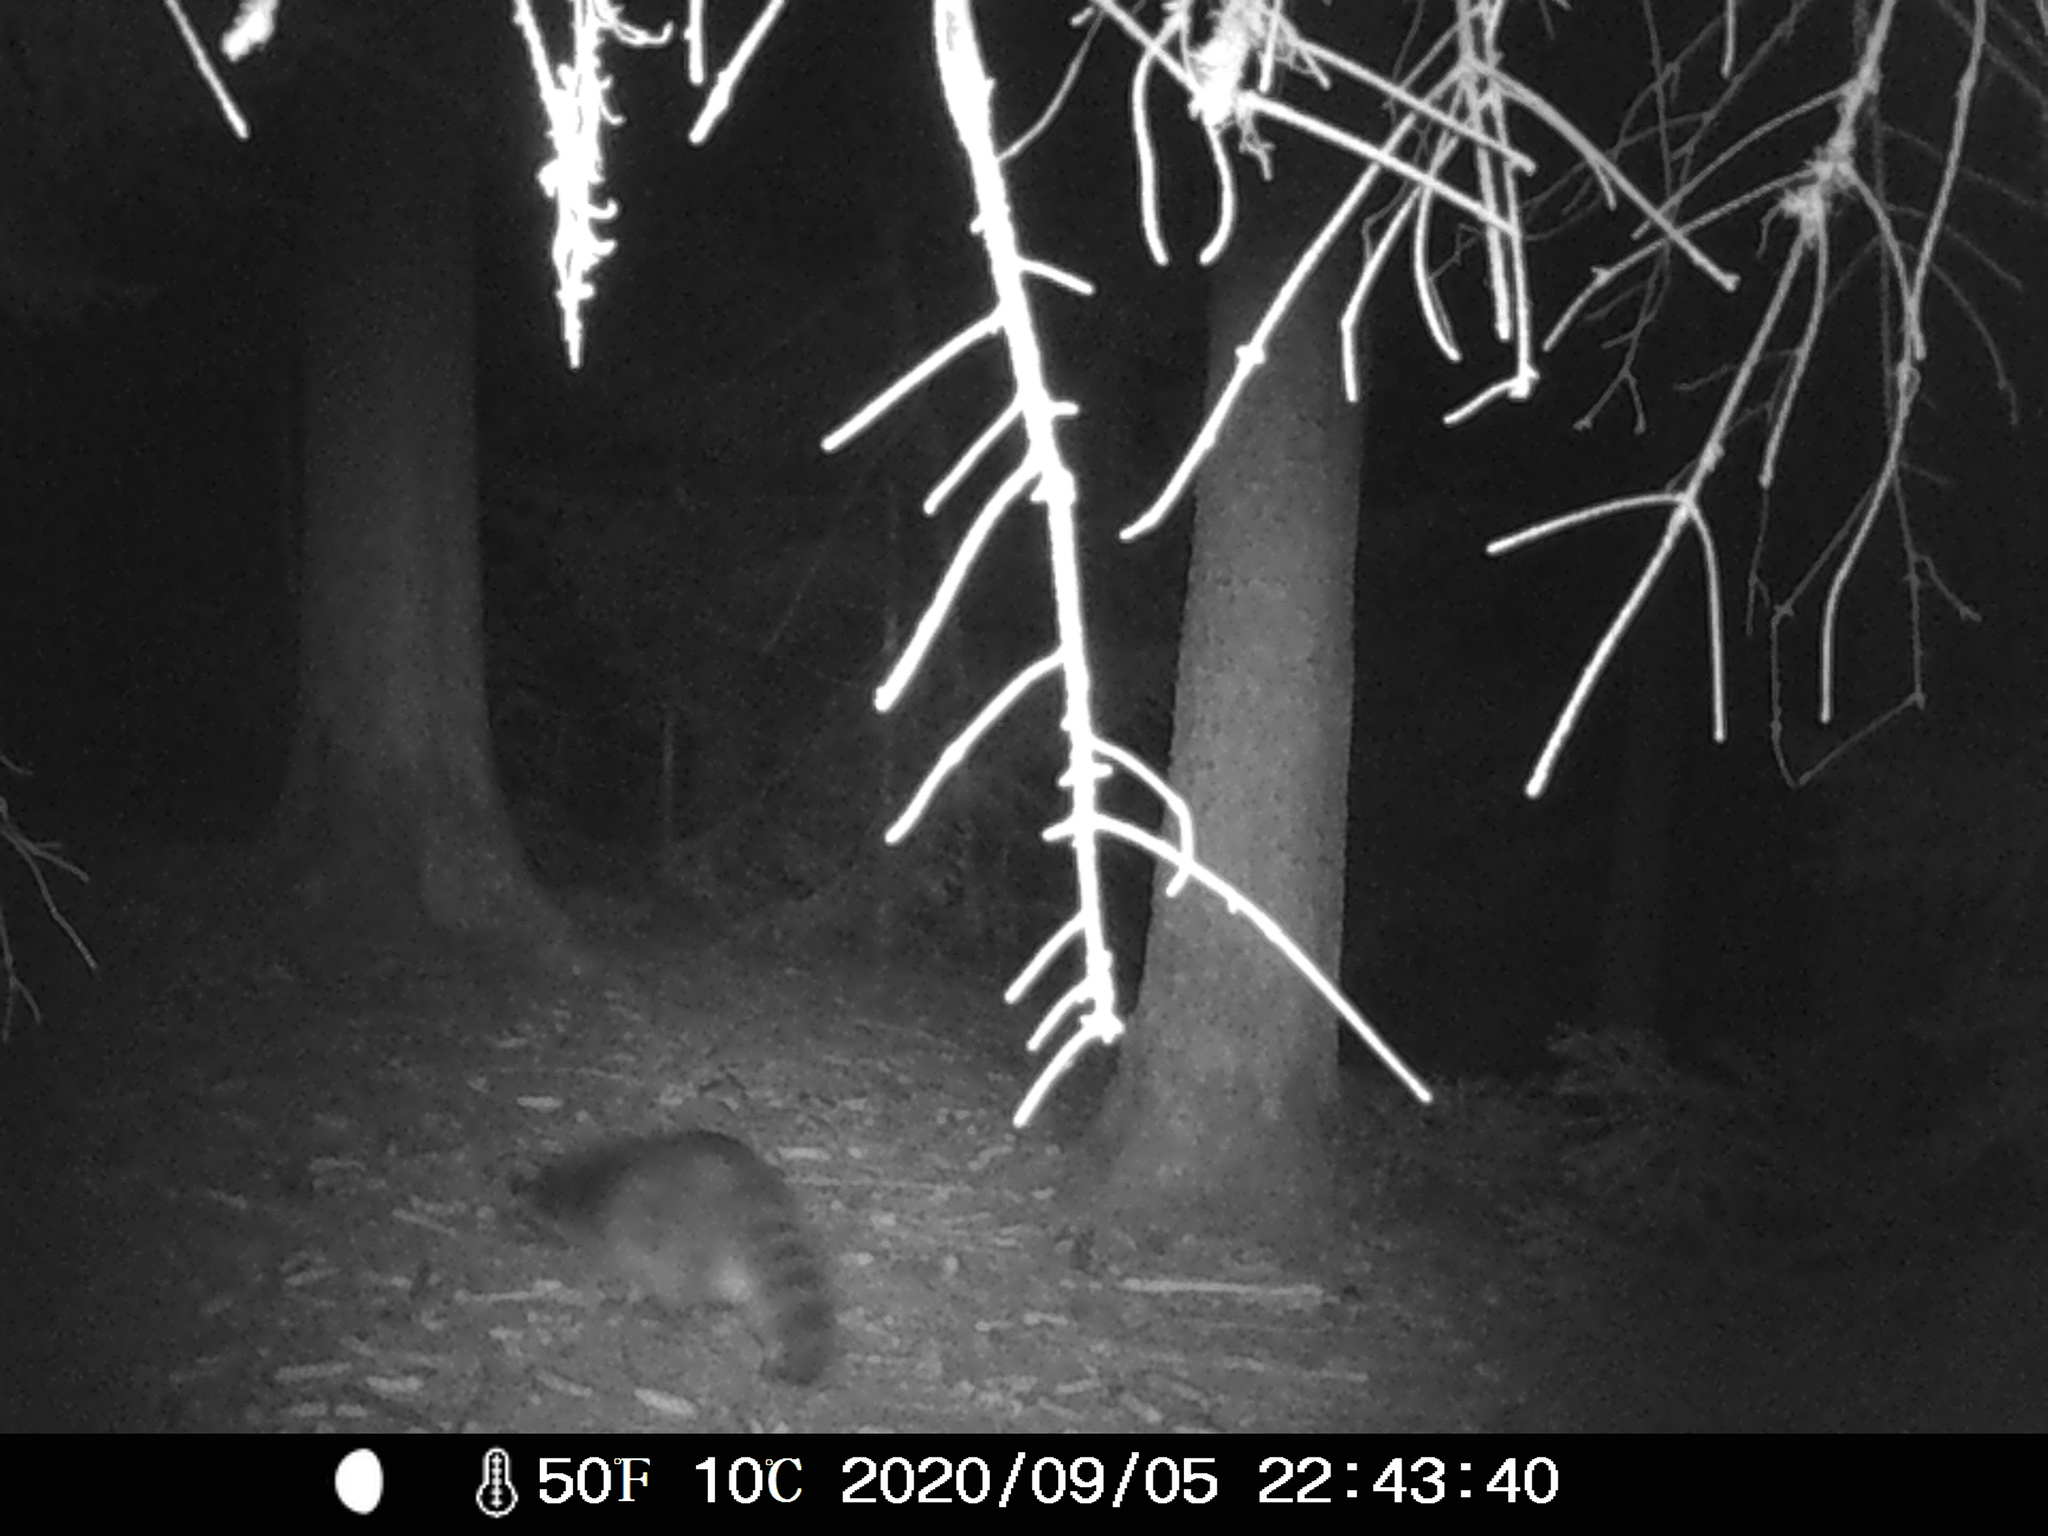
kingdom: Animalia
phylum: Chordata
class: Mammalia
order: Carnivora
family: Procyonidae
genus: Procyon
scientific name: Procyon lotor
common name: Raccoon
